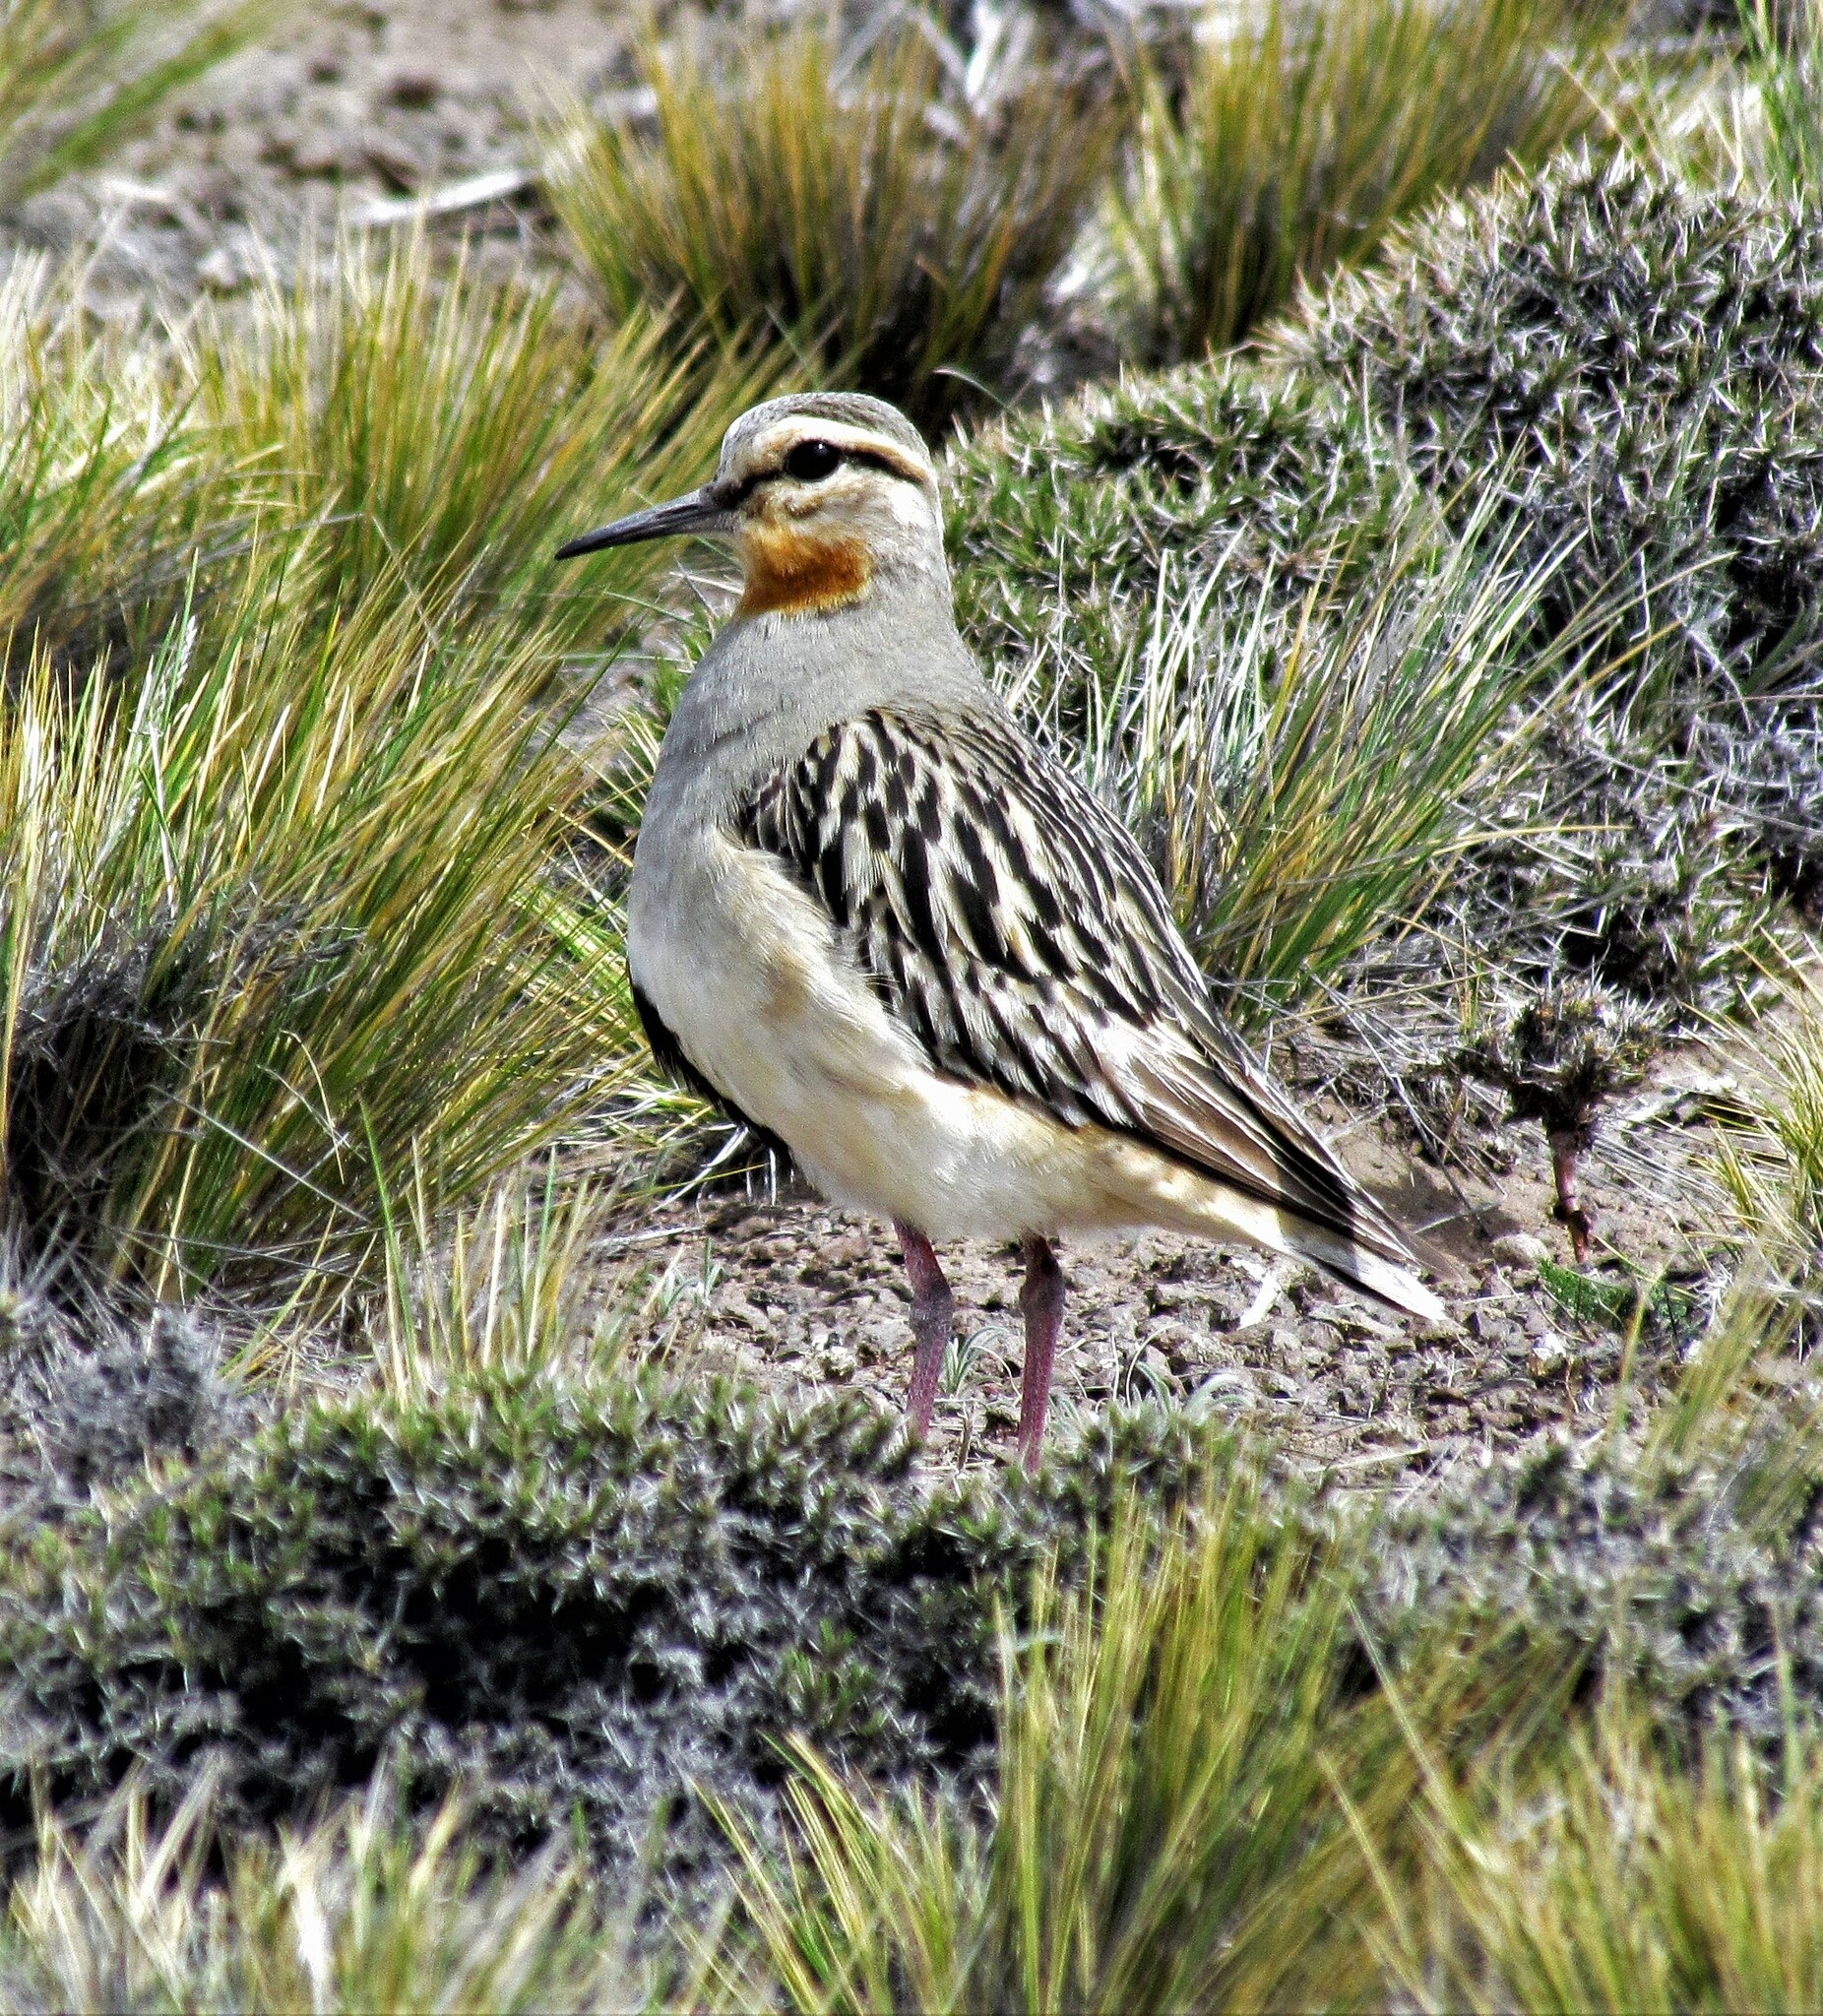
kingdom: Animalia
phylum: Chordata
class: Aves
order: Charadriiformes
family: Charadriidae
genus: Oreopholus
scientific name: Oreopholus ruficollis
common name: Tawny-throated dotterel
